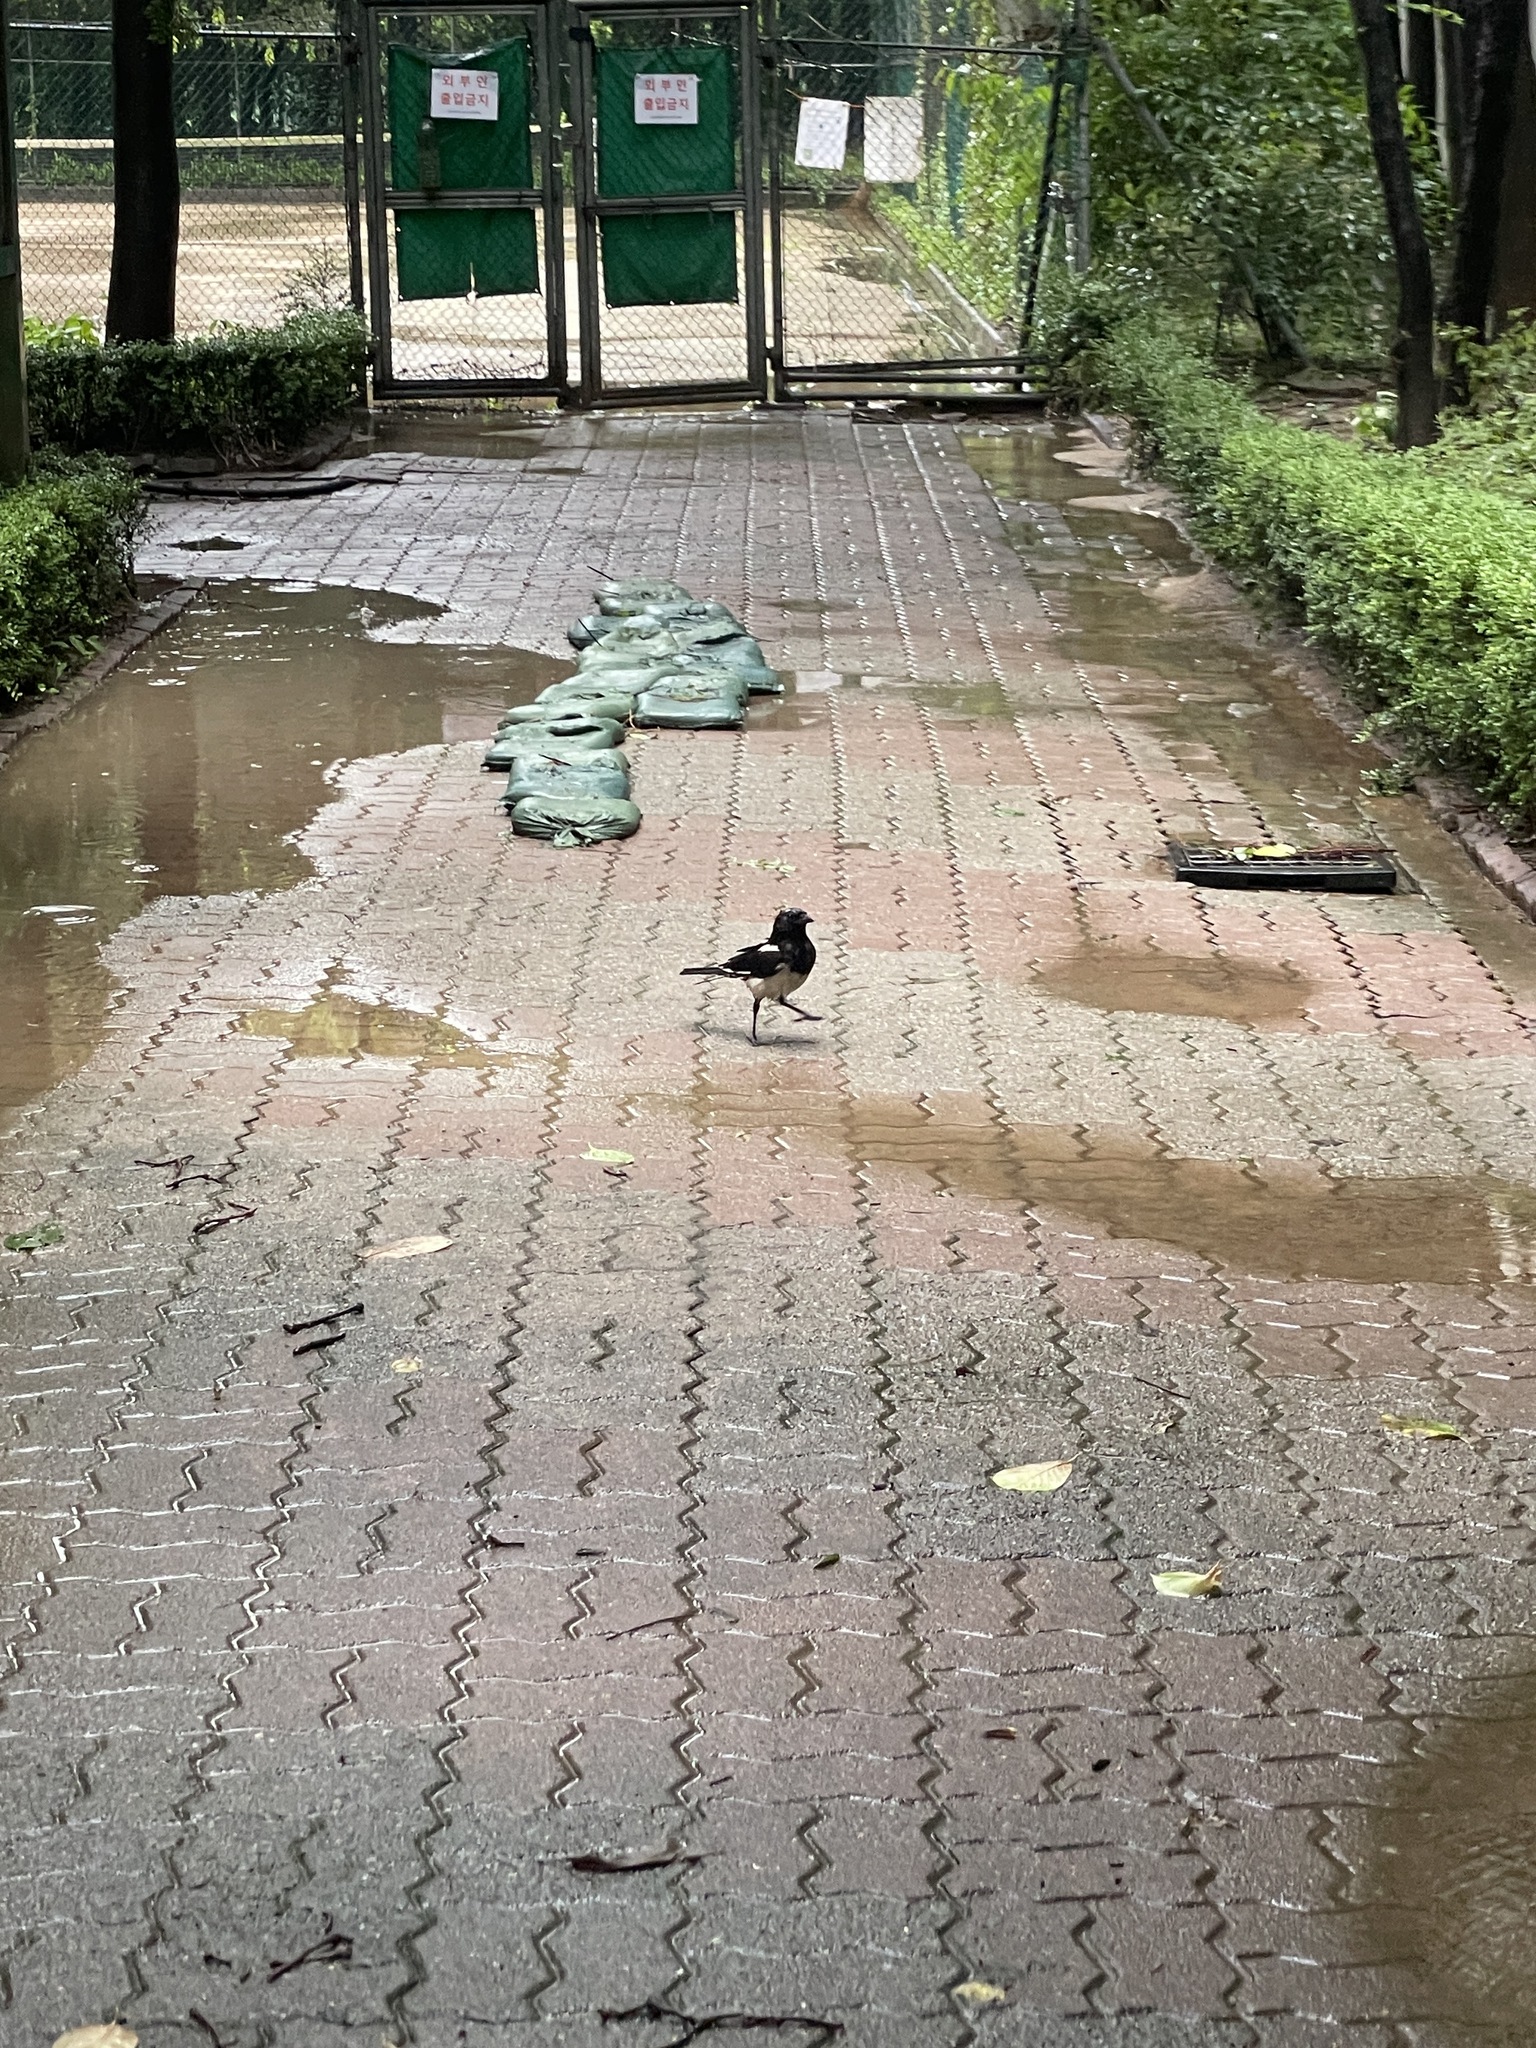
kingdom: Animalia
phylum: Chordata
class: Aves
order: Passeriformes
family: Corvidae
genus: Pica
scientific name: Pica serica
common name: Oriental magpie
